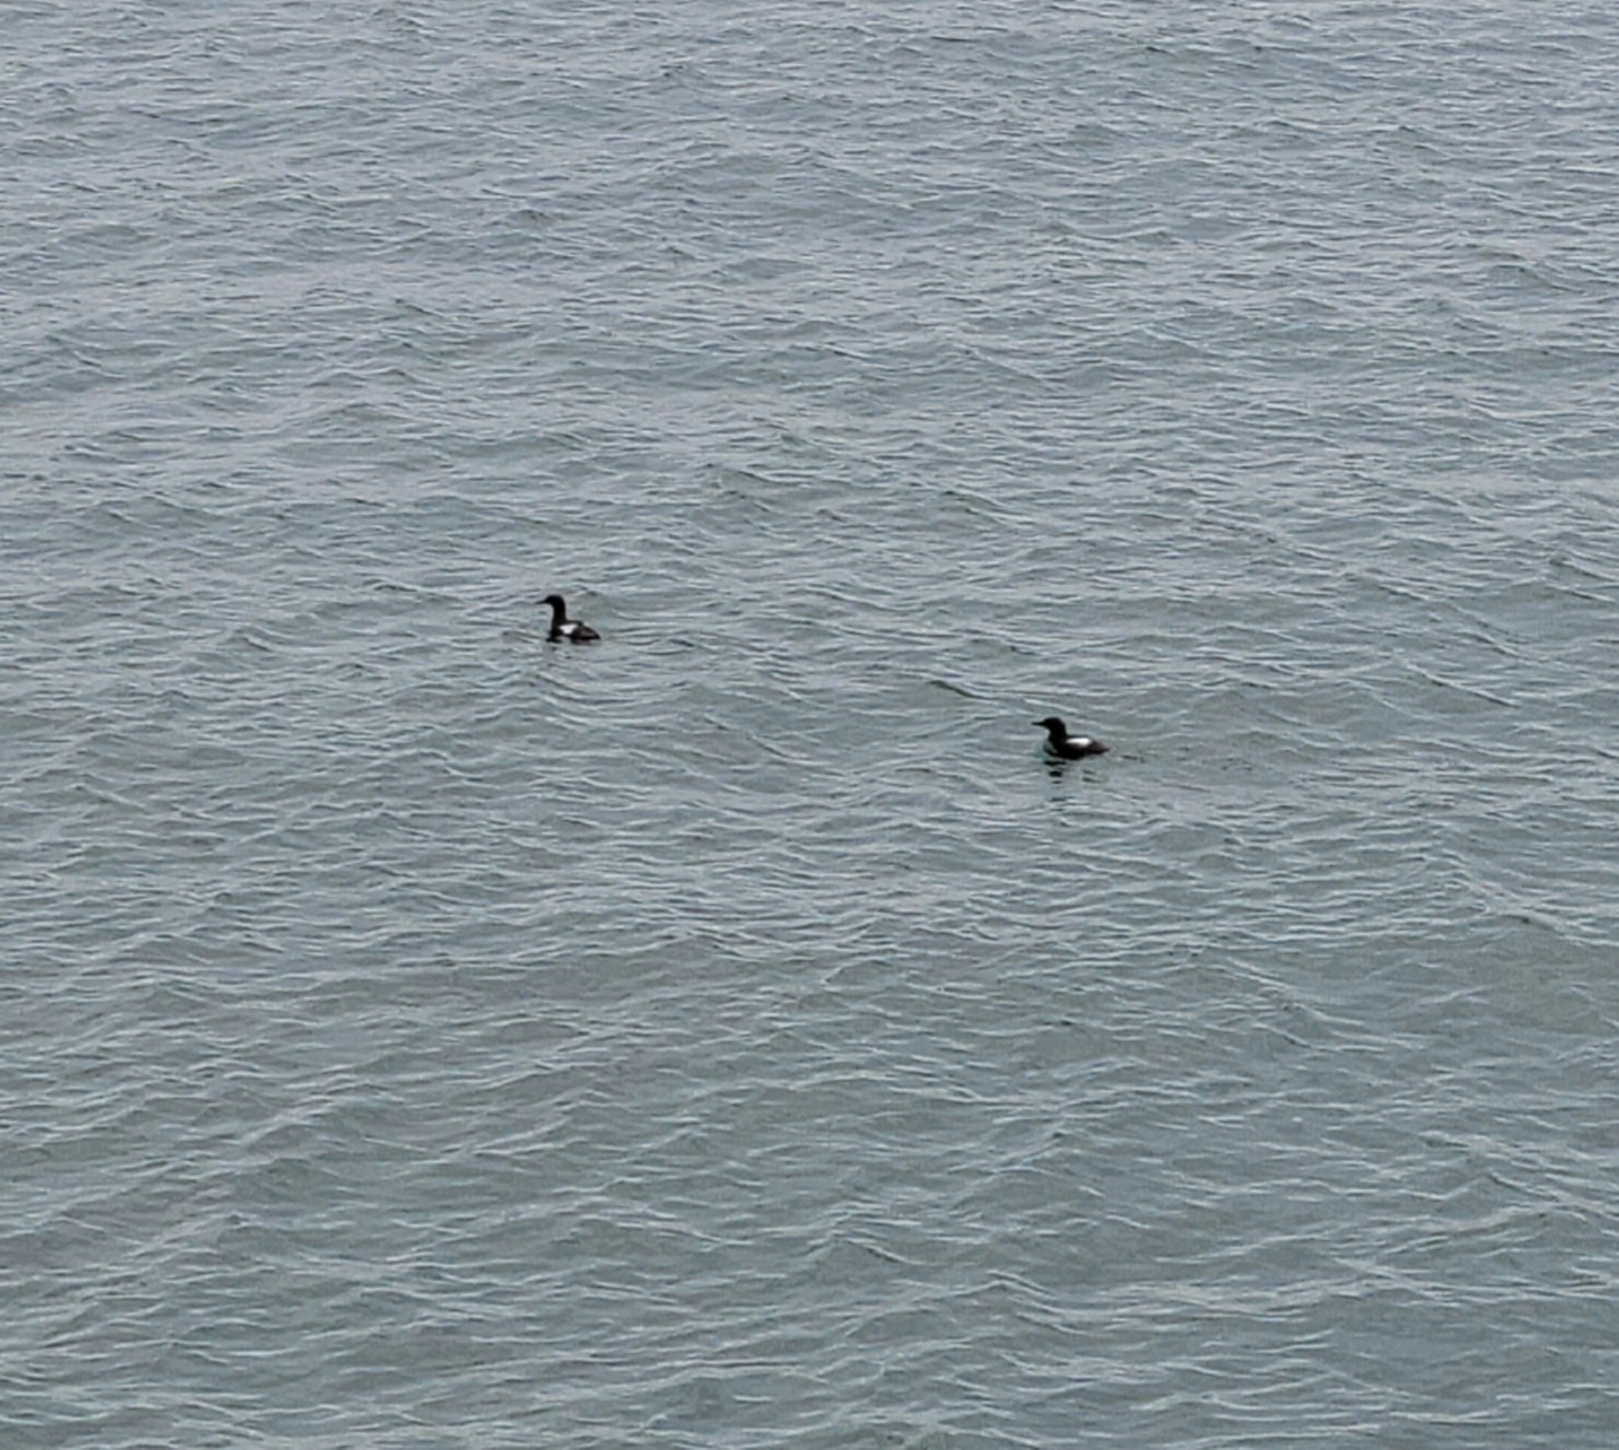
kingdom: Animalia
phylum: Chordata
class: Aves
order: Charadriiformes
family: Alcidae
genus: Cepphus
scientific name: Cepphus grylle
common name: Black guillemot
